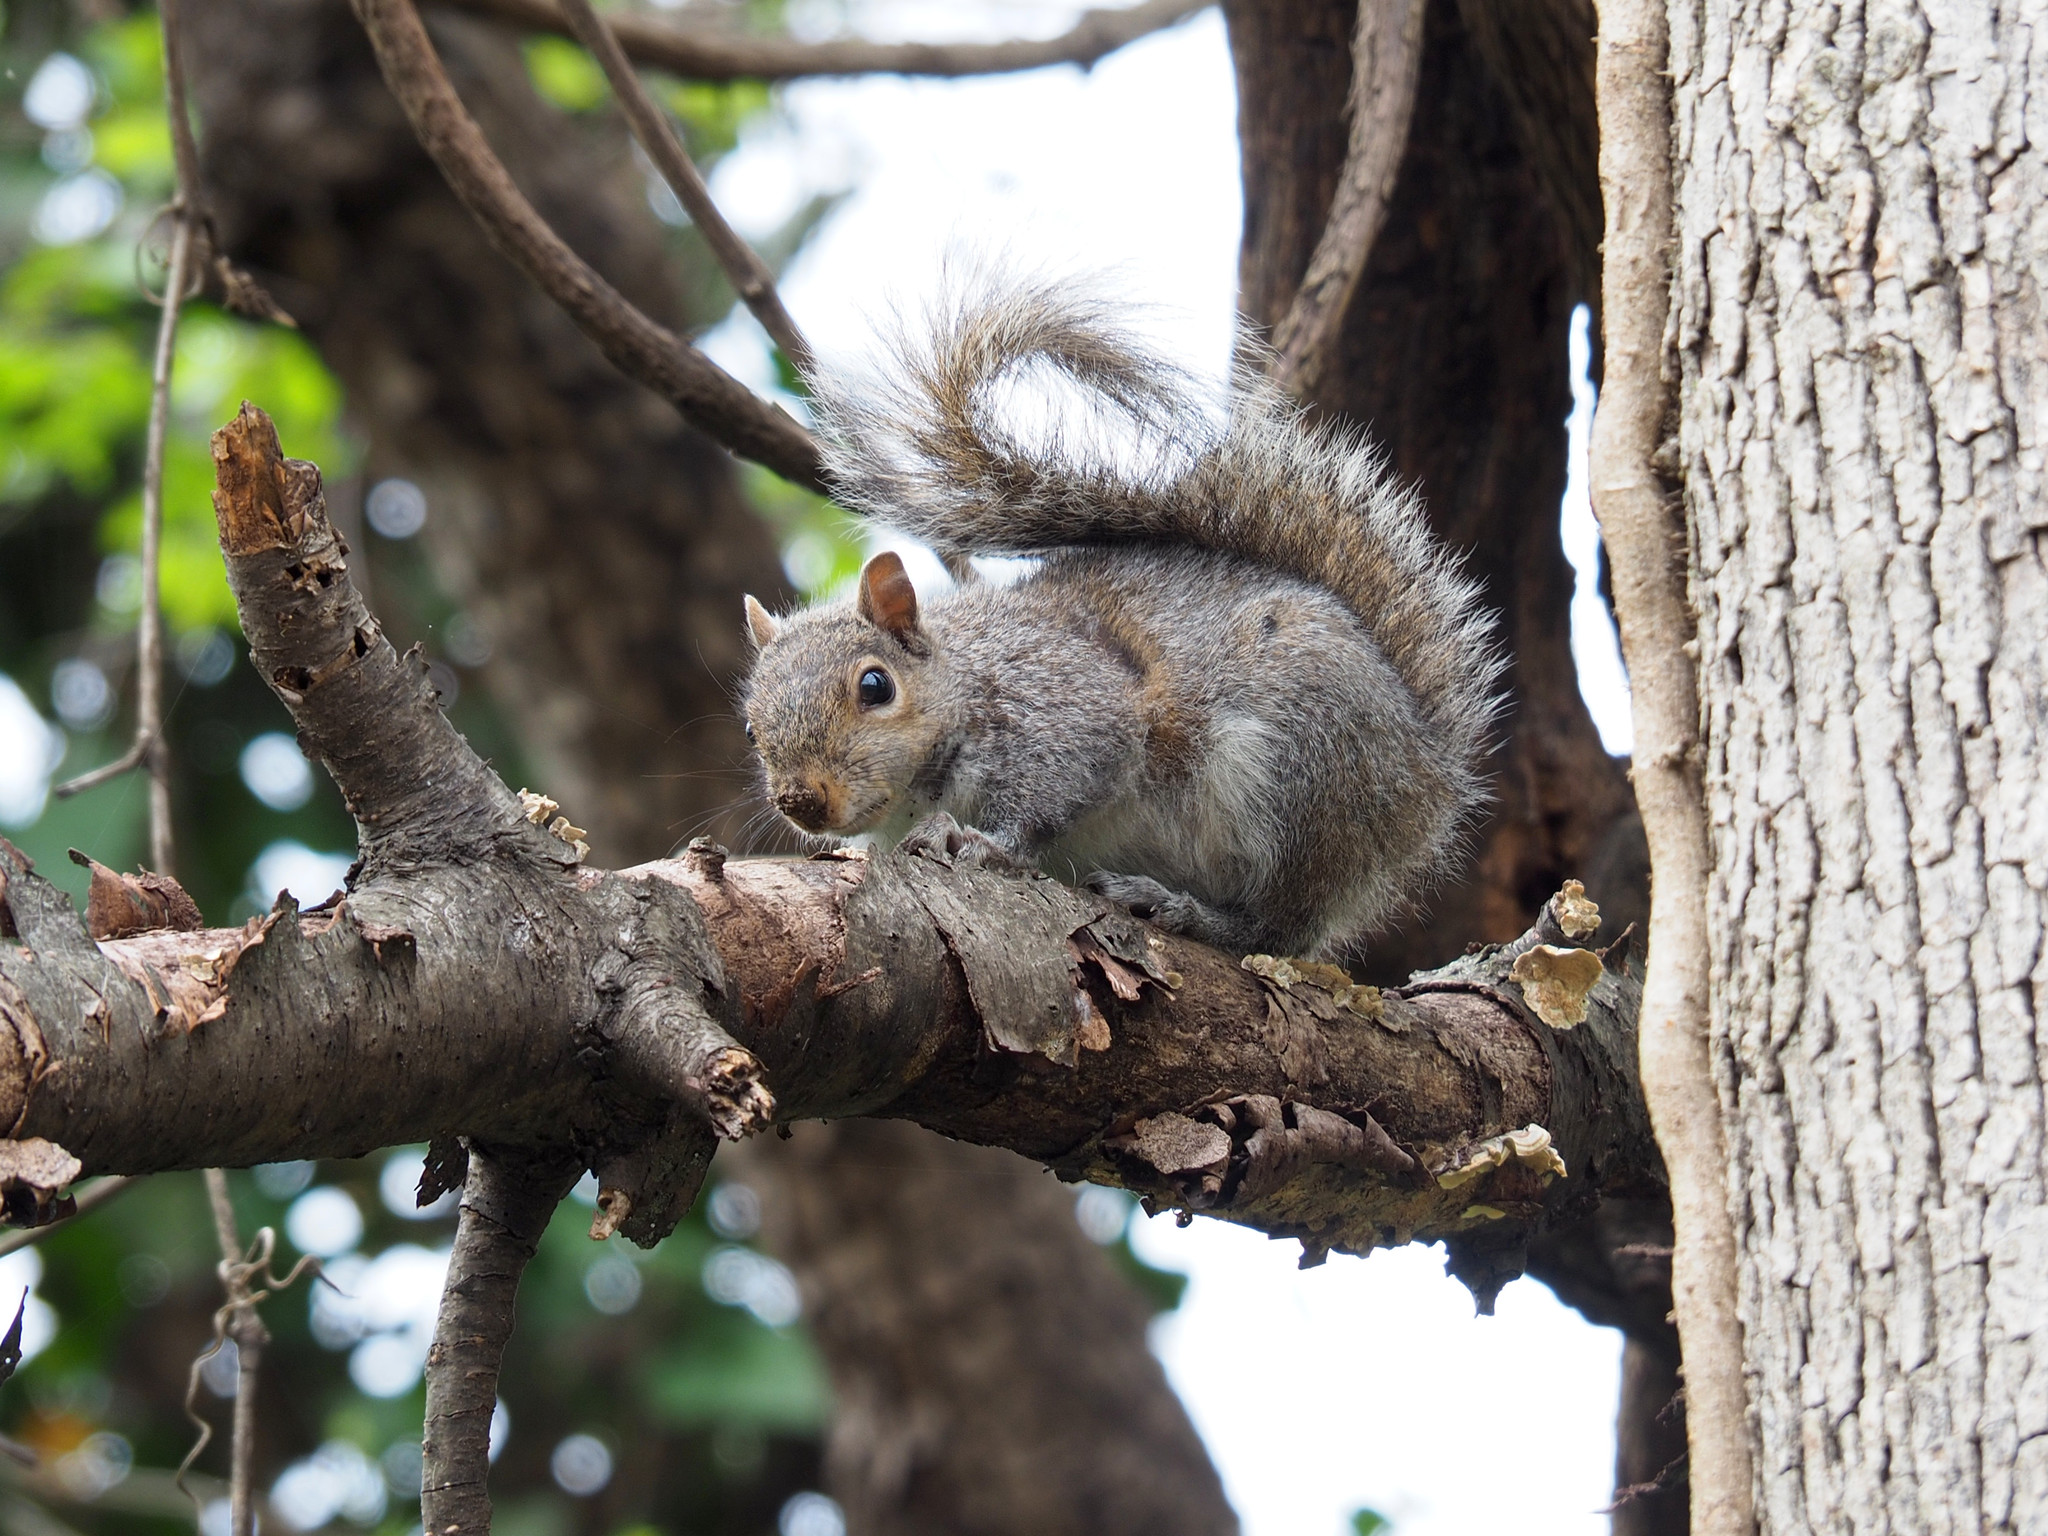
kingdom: Animalia
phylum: Chordata
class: Mammalia
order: Rodentia
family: Sciuridae
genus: Sciurus
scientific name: Sciurus carolinensis
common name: Eastern gray squirrel
